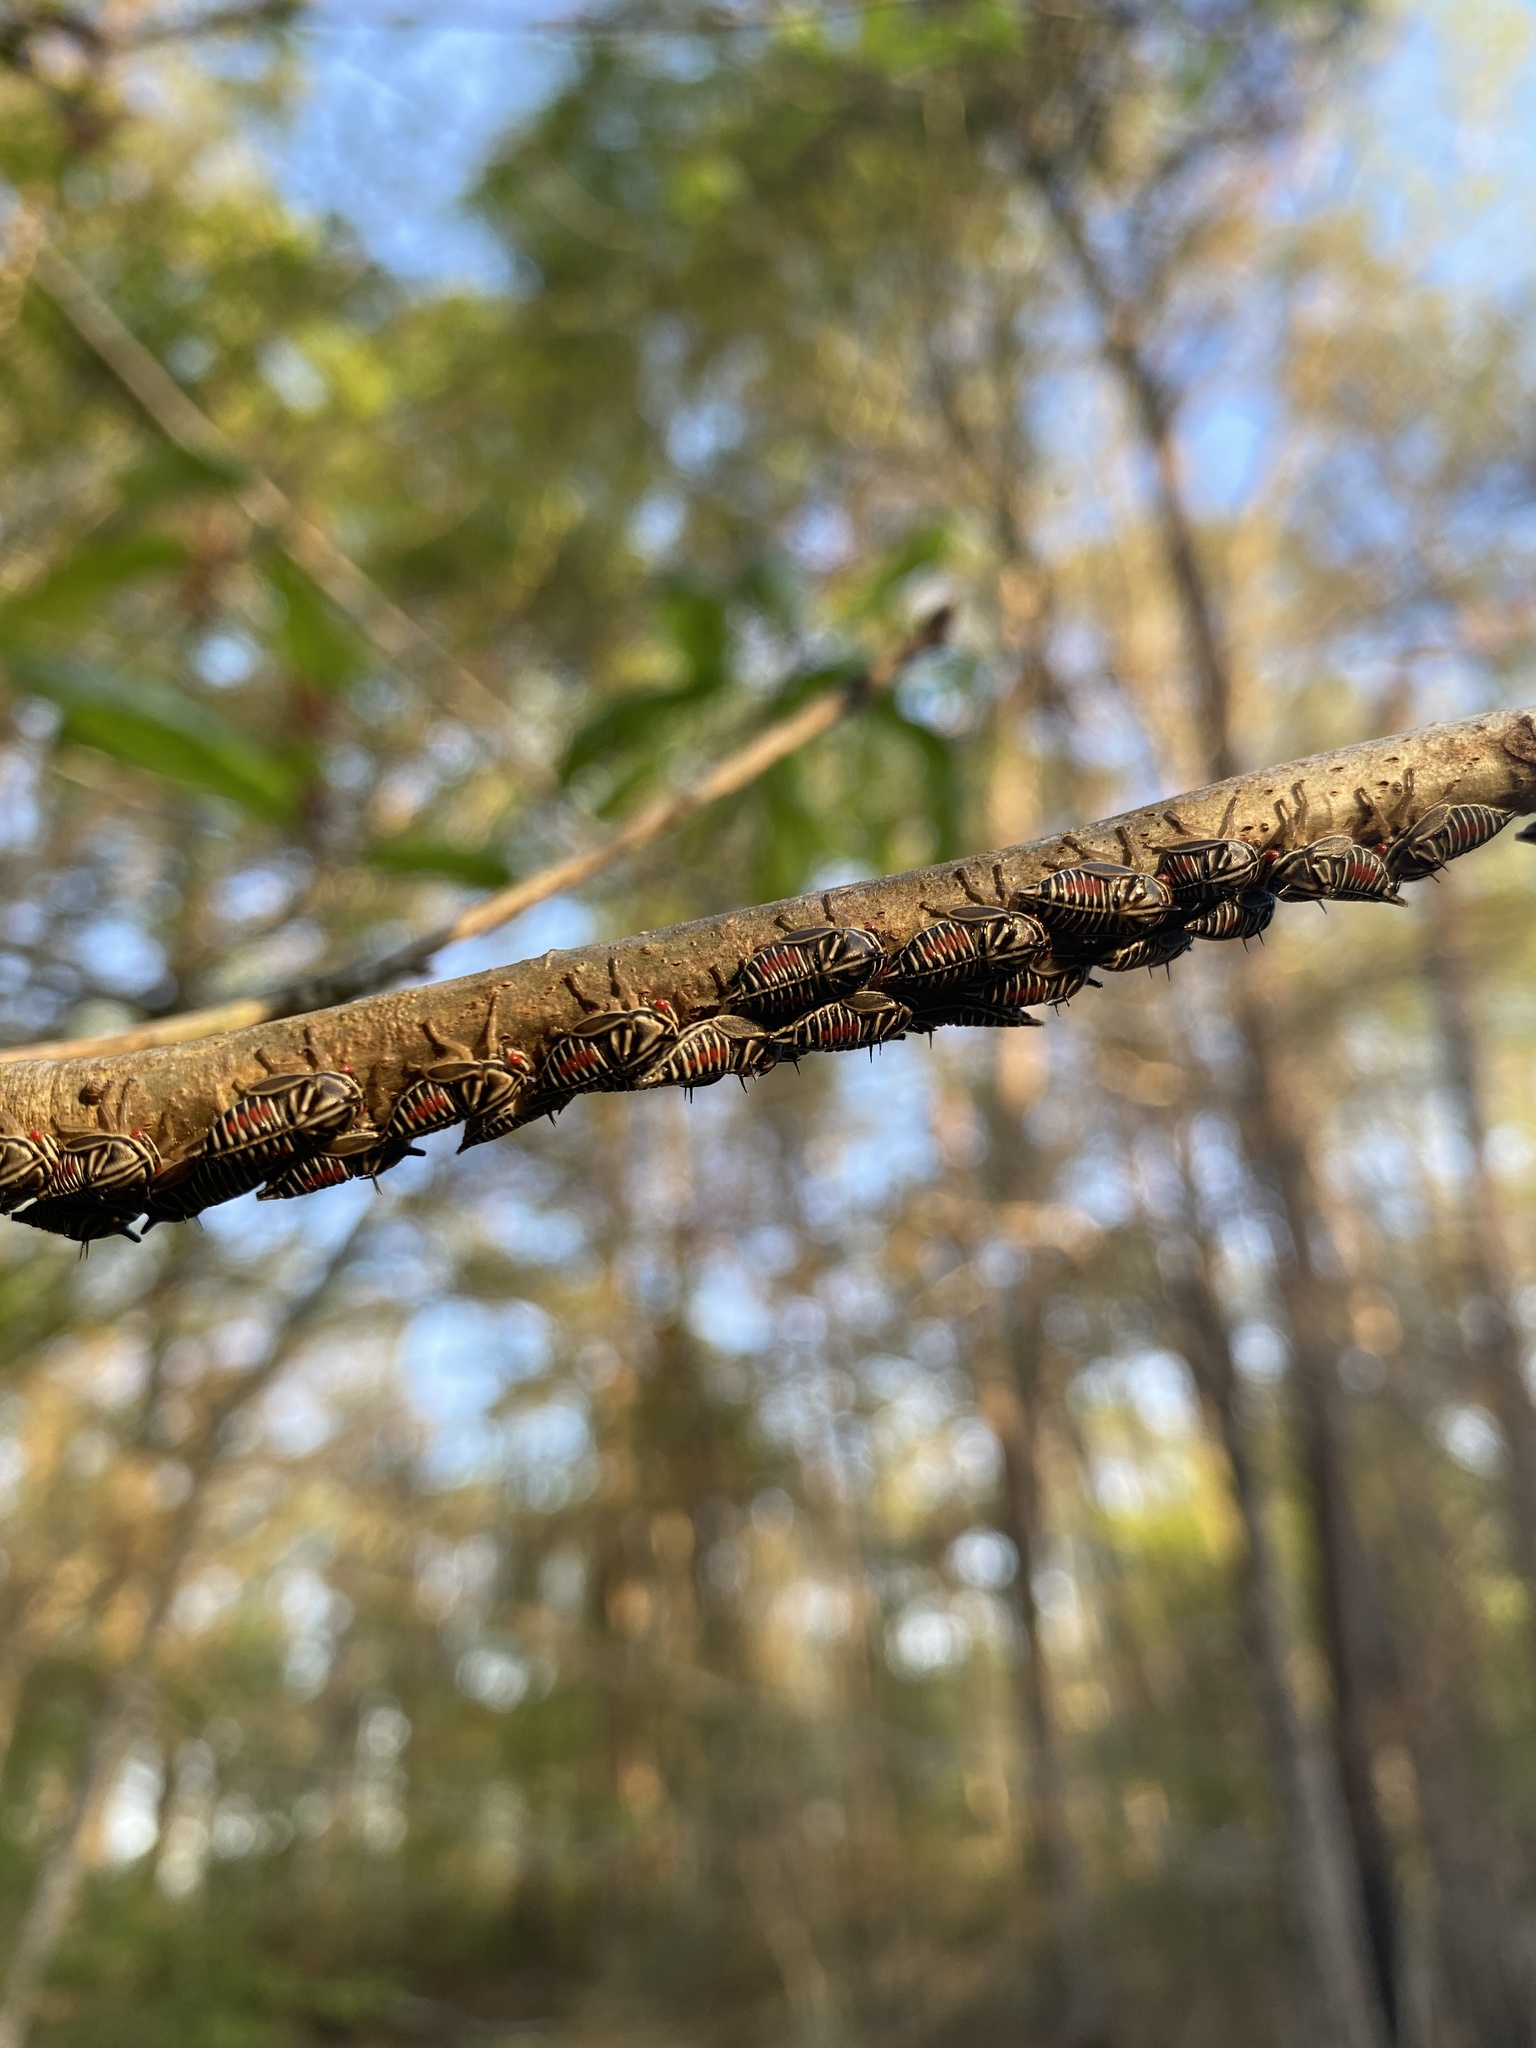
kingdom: Animalia
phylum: Arthropoda
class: Insecta
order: Hemiptera
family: Membracidae
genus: Platycotis
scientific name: Platycotis vittatus
